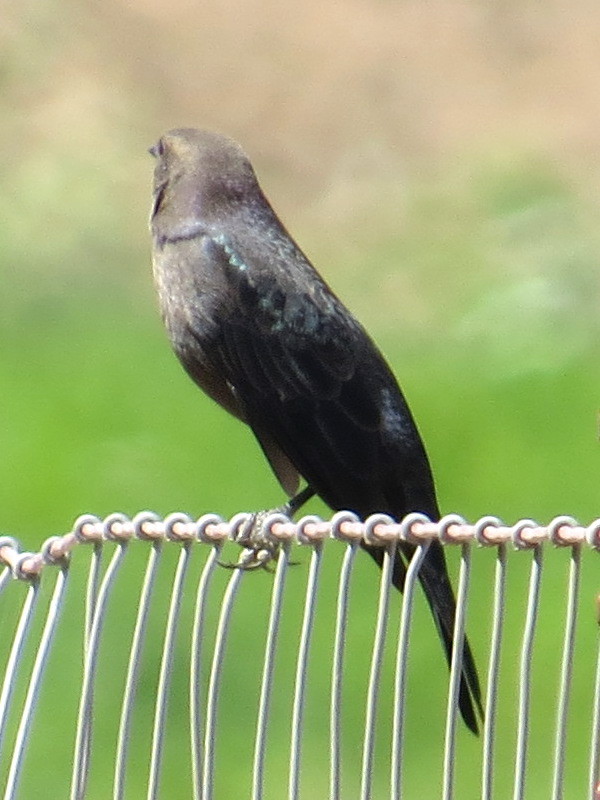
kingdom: Animalia
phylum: Chordata
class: Aves
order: Passeriformes
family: Icteridae
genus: Euphagus
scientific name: Euphagus cyanocephalus
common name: Brewer's blackbird
